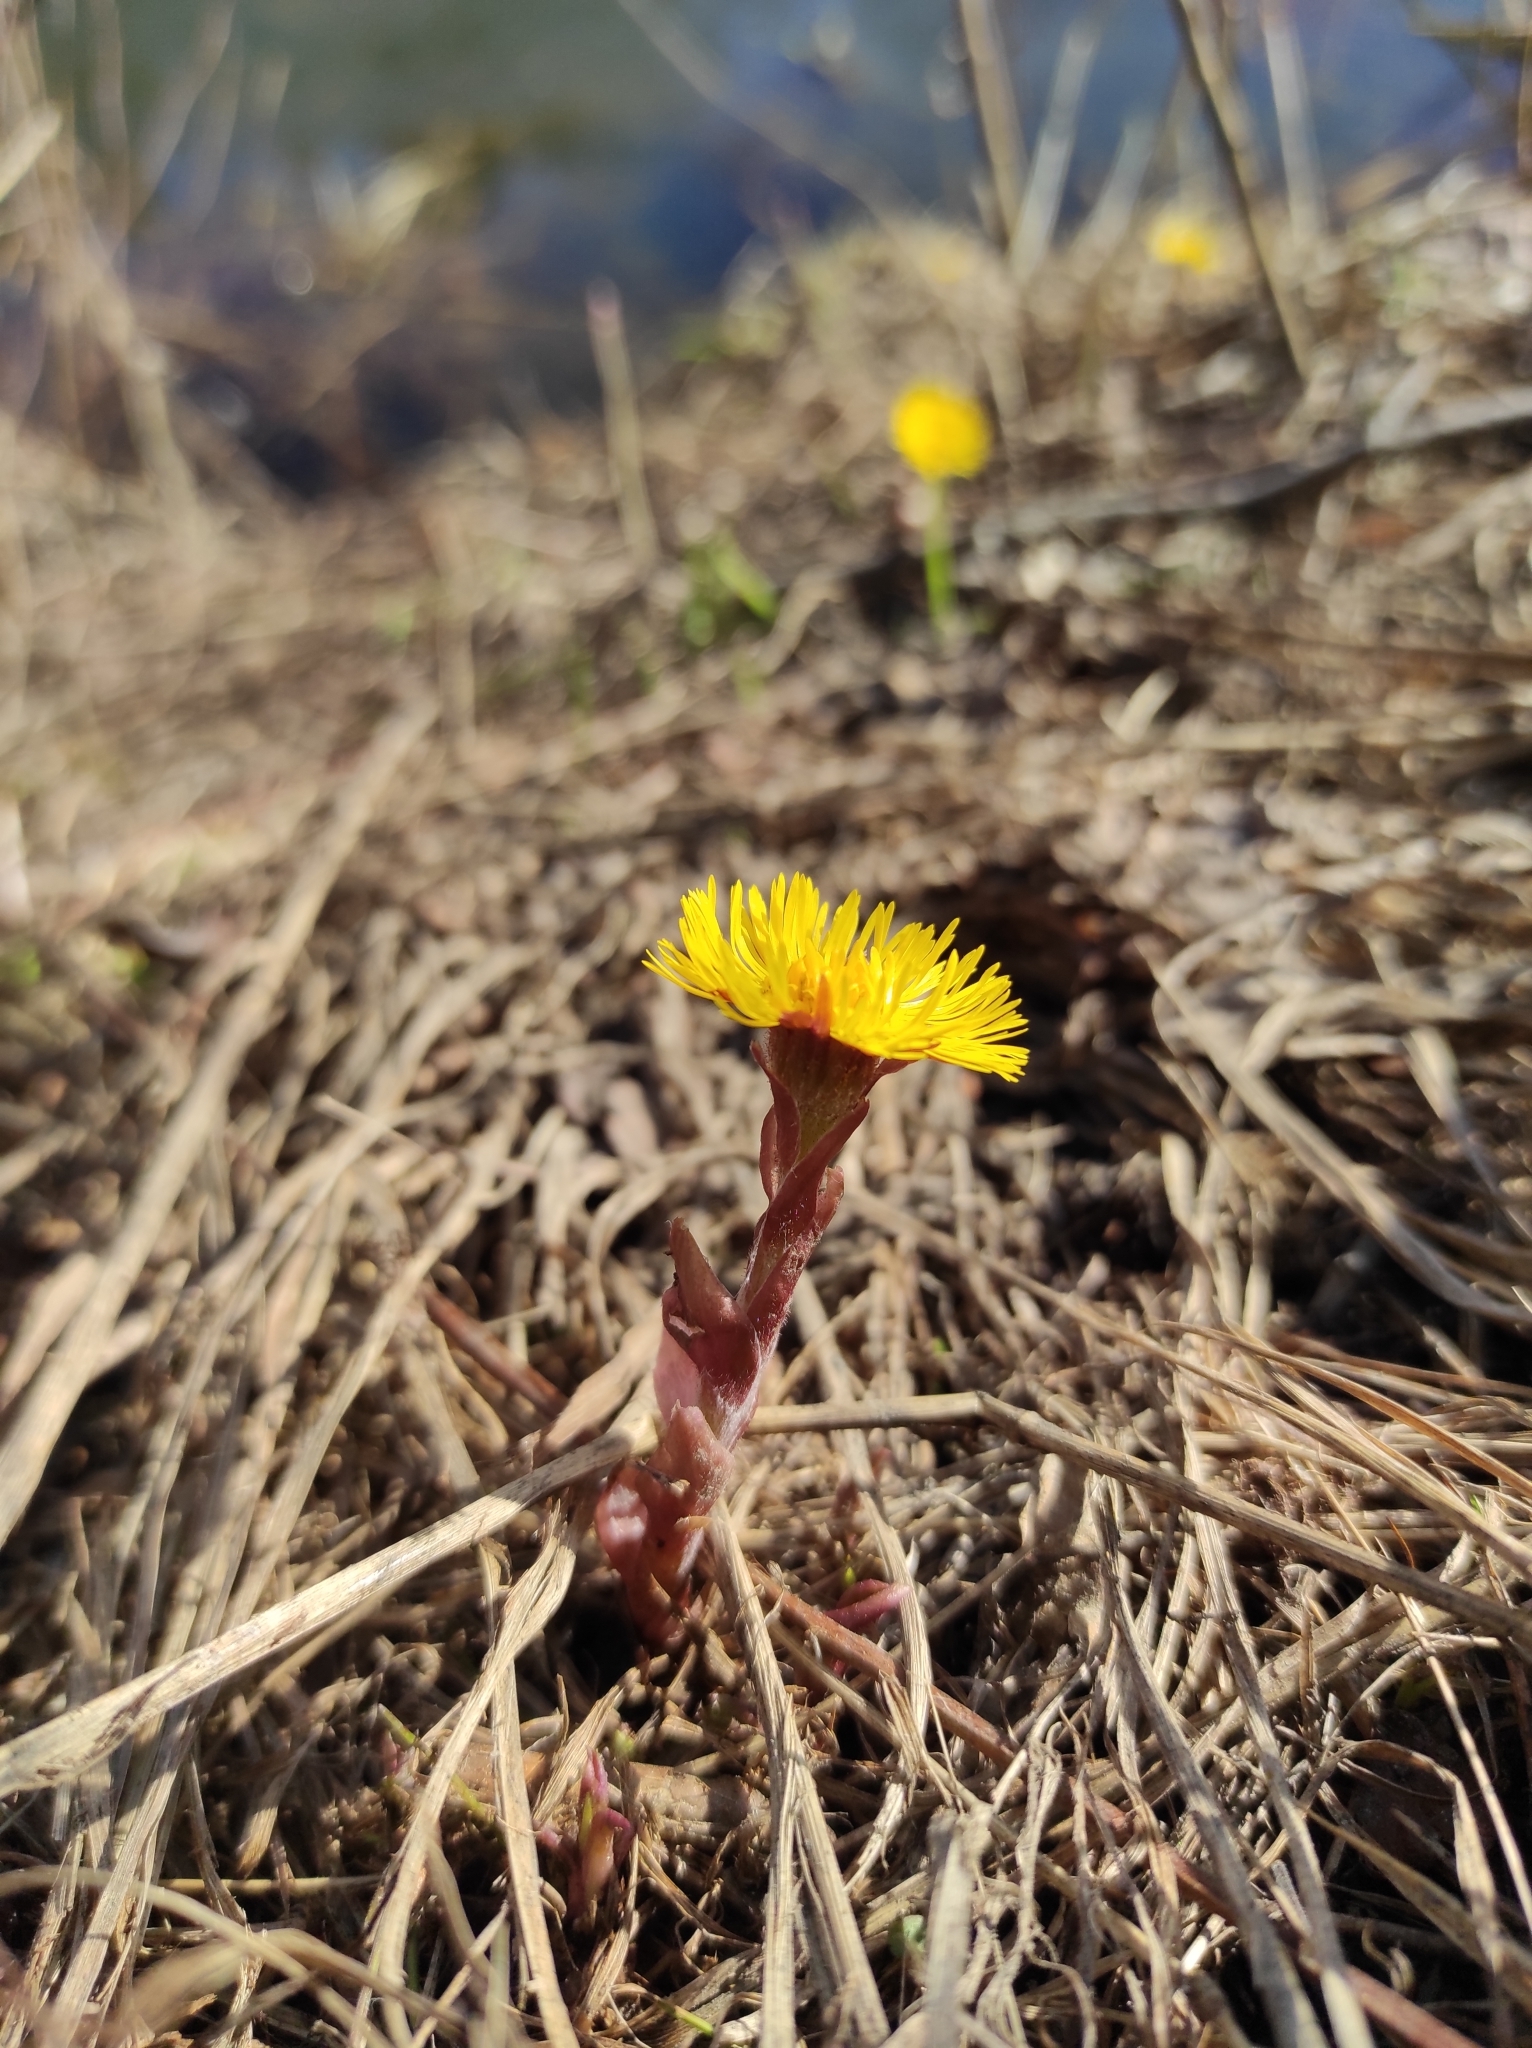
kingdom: Plantae
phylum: Tracheophyta
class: Magnoliopsida
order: Asterales
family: Asteraceae
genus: Tussilago
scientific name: Tussilago farfara
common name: Coltsfoot
